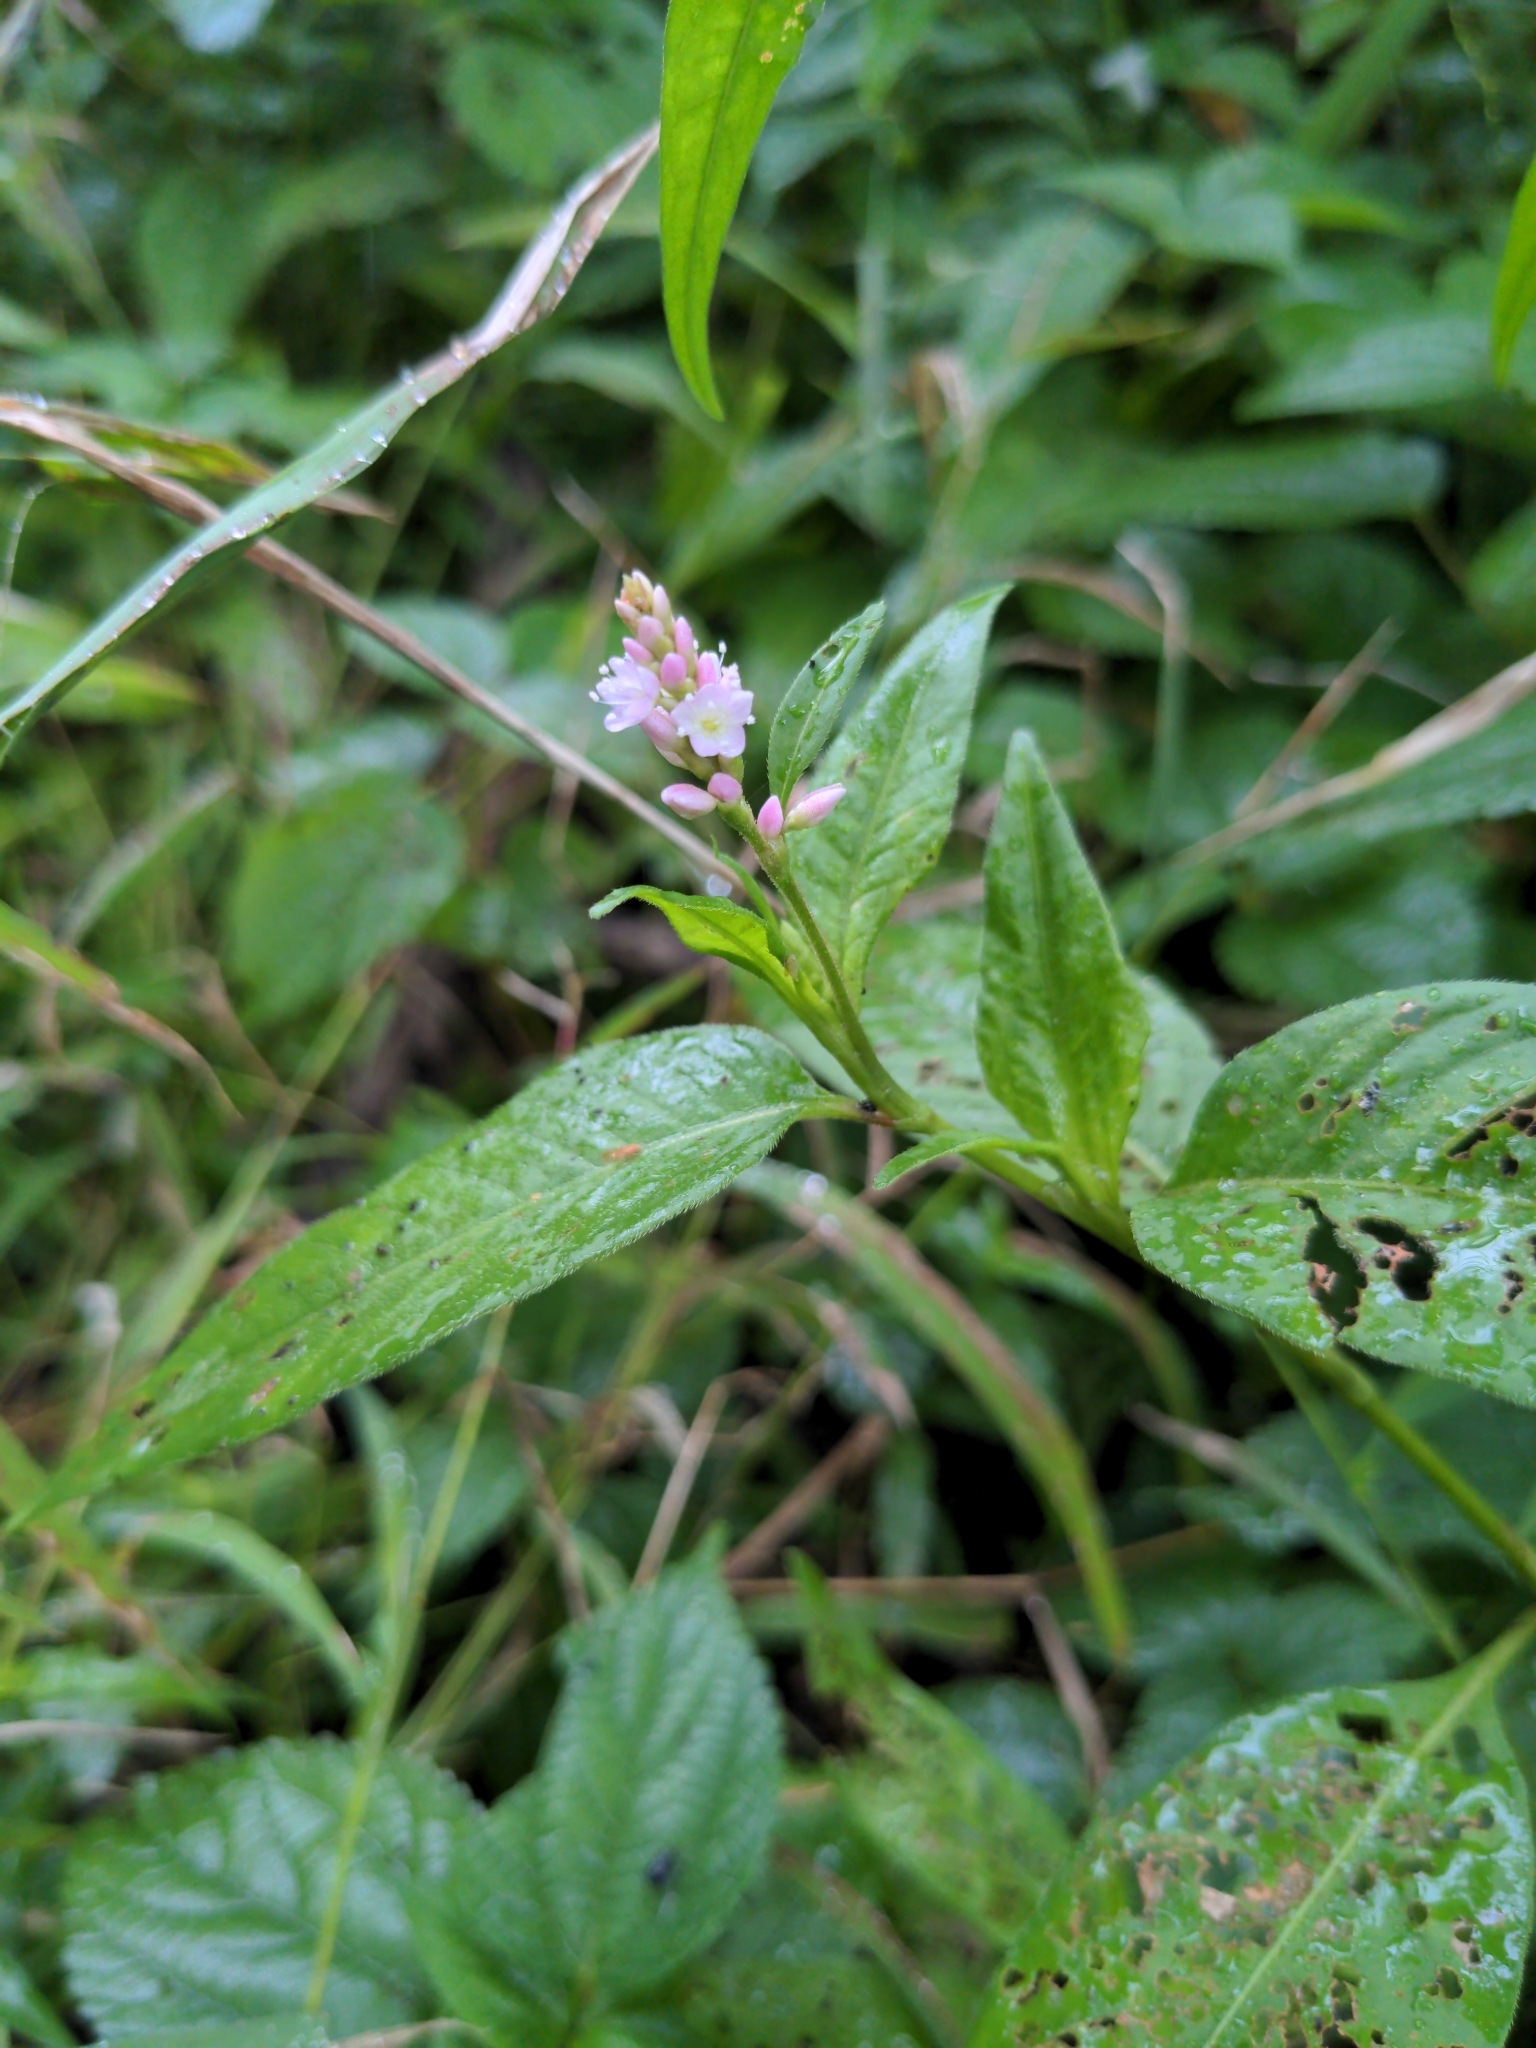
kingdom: Plantae
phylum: Tracheophyta
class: Magnoliopsida
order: Caryophyllales
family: Polygonaceae
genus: Persicaria
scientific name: Persicaria longiseta
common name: Bristly lady's-thumb
